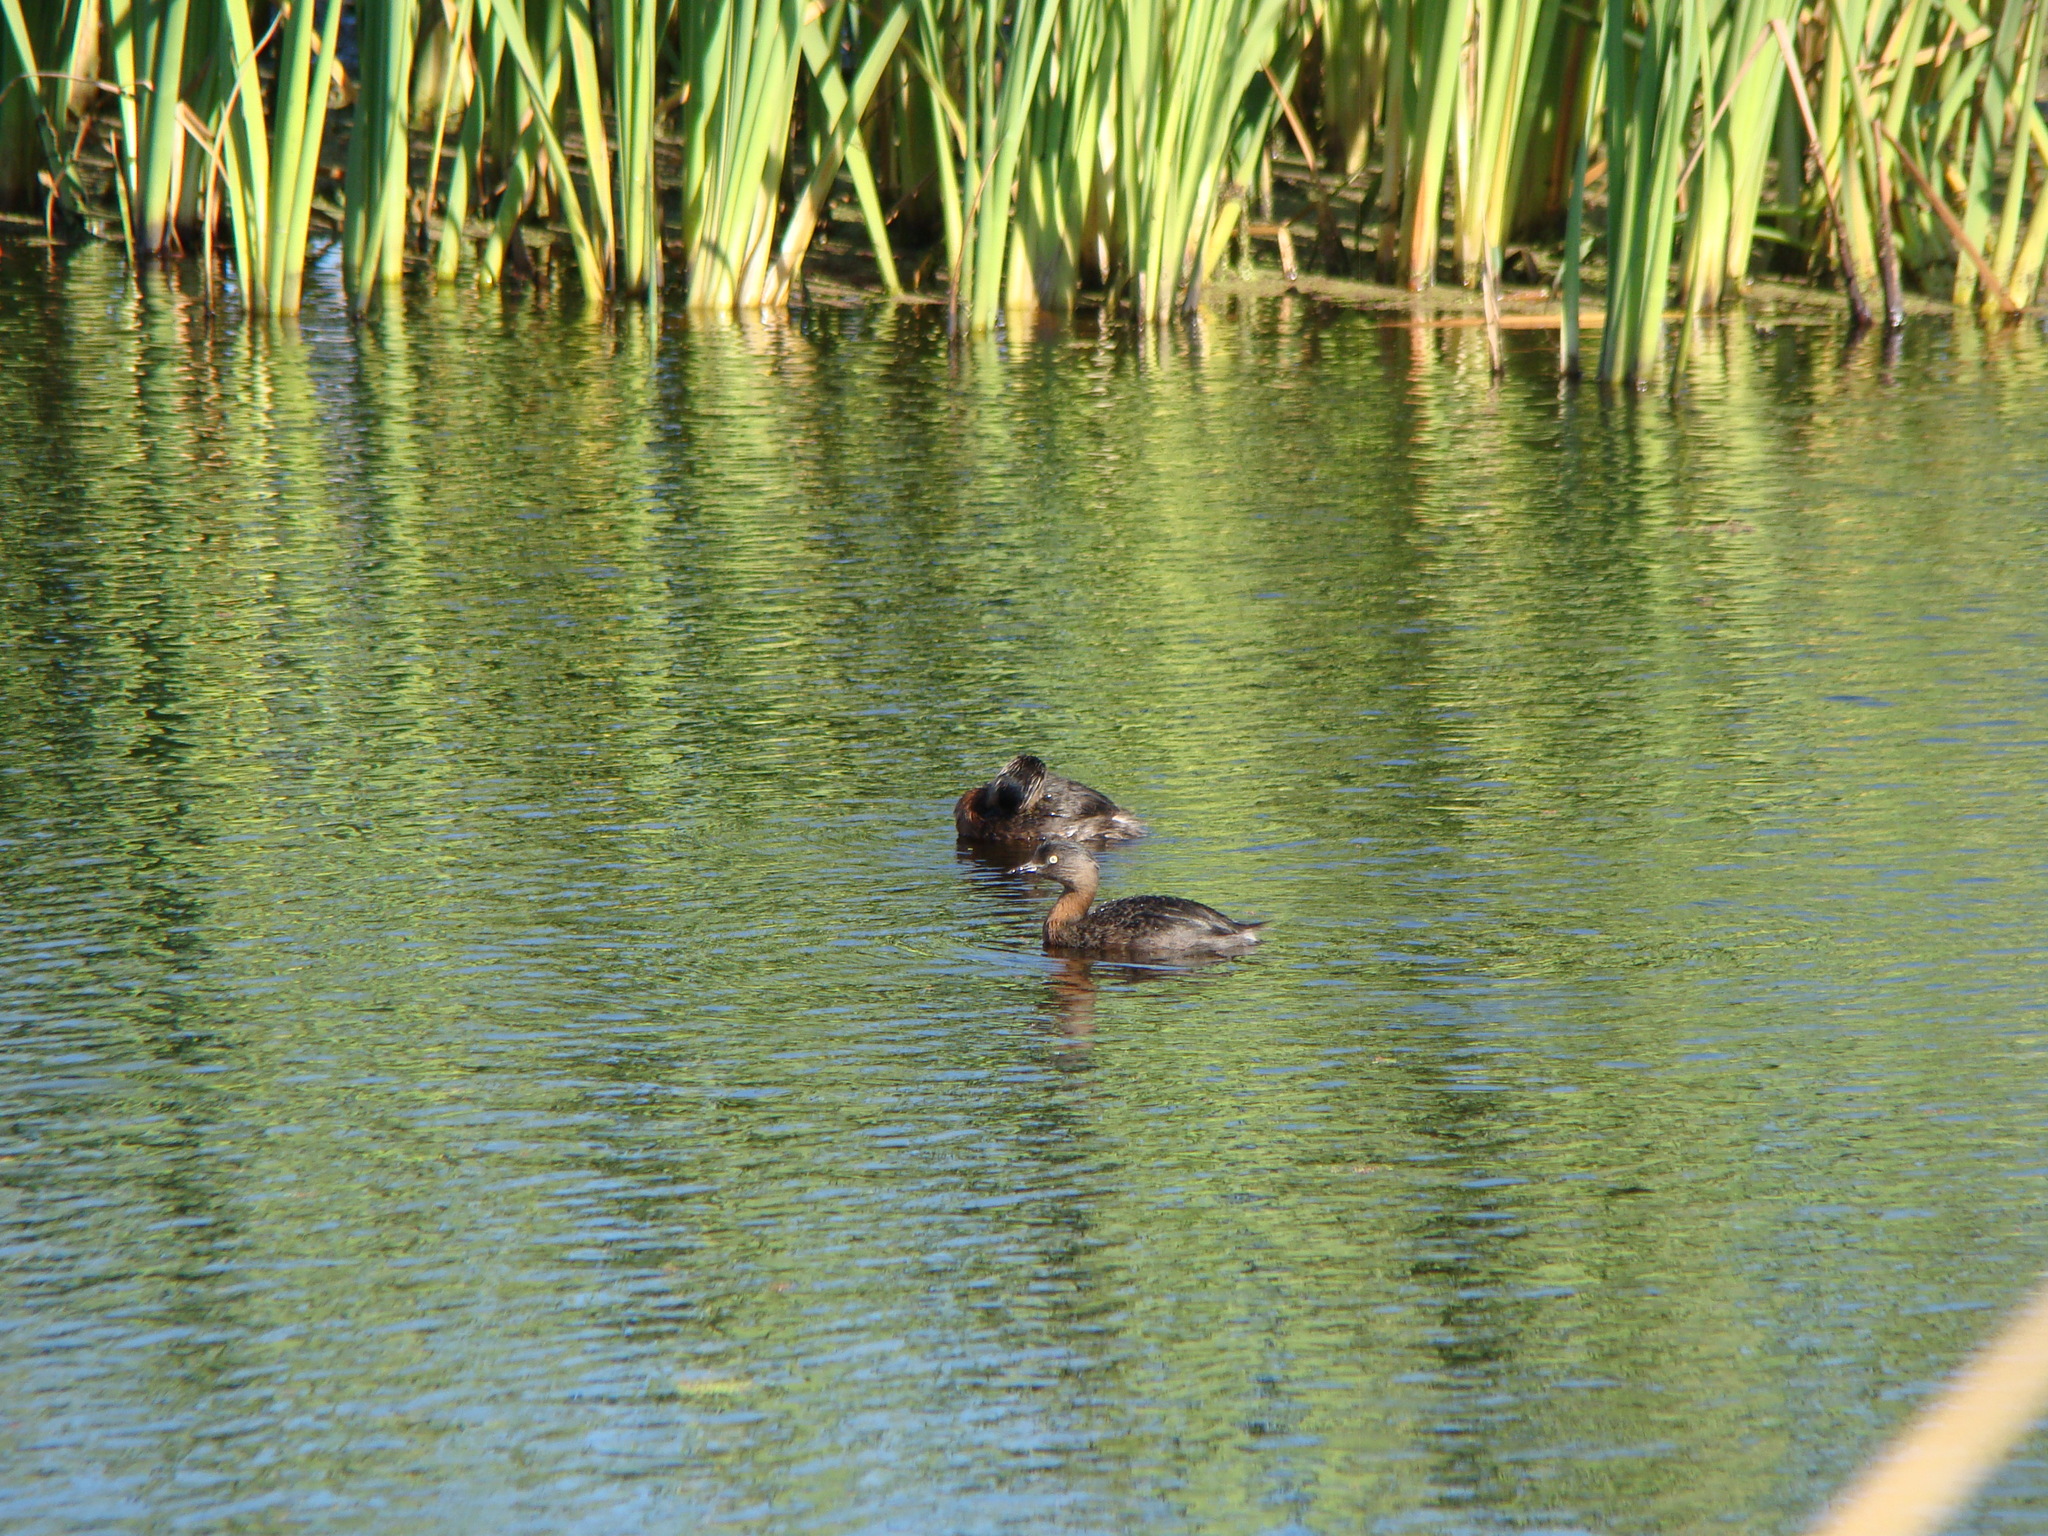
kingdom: Animalia
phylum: Chordata
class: Aves
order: Podicipediformes
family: Podicipedidae
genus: Poliocephalus
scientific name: Poliocephalus rufopectus
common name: New zealand grebe
